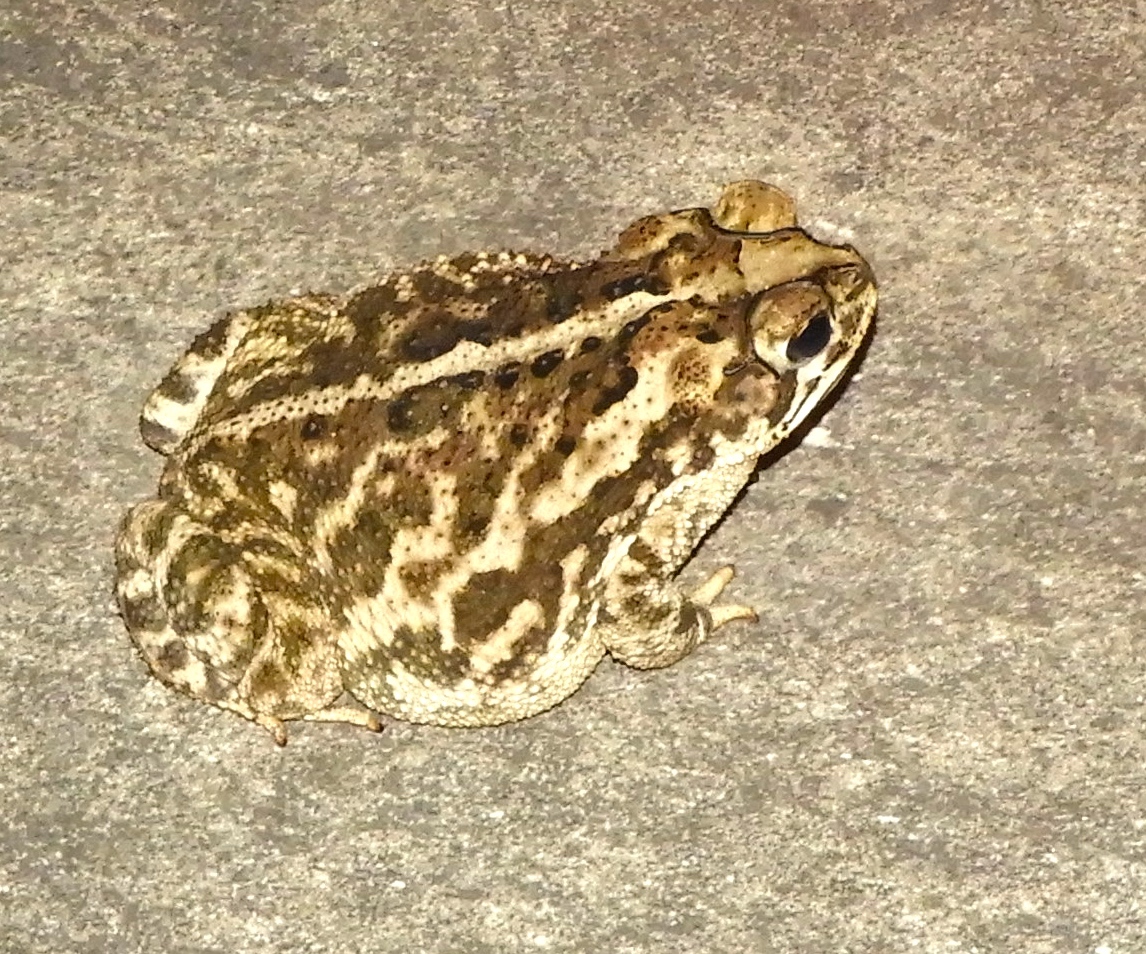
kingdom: Animalia
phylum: Chordata
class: Amphibia
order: Anura
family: Bufonidae
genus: Incilius
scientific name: Incilius mazatlanensis
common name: Sinaloa toad
